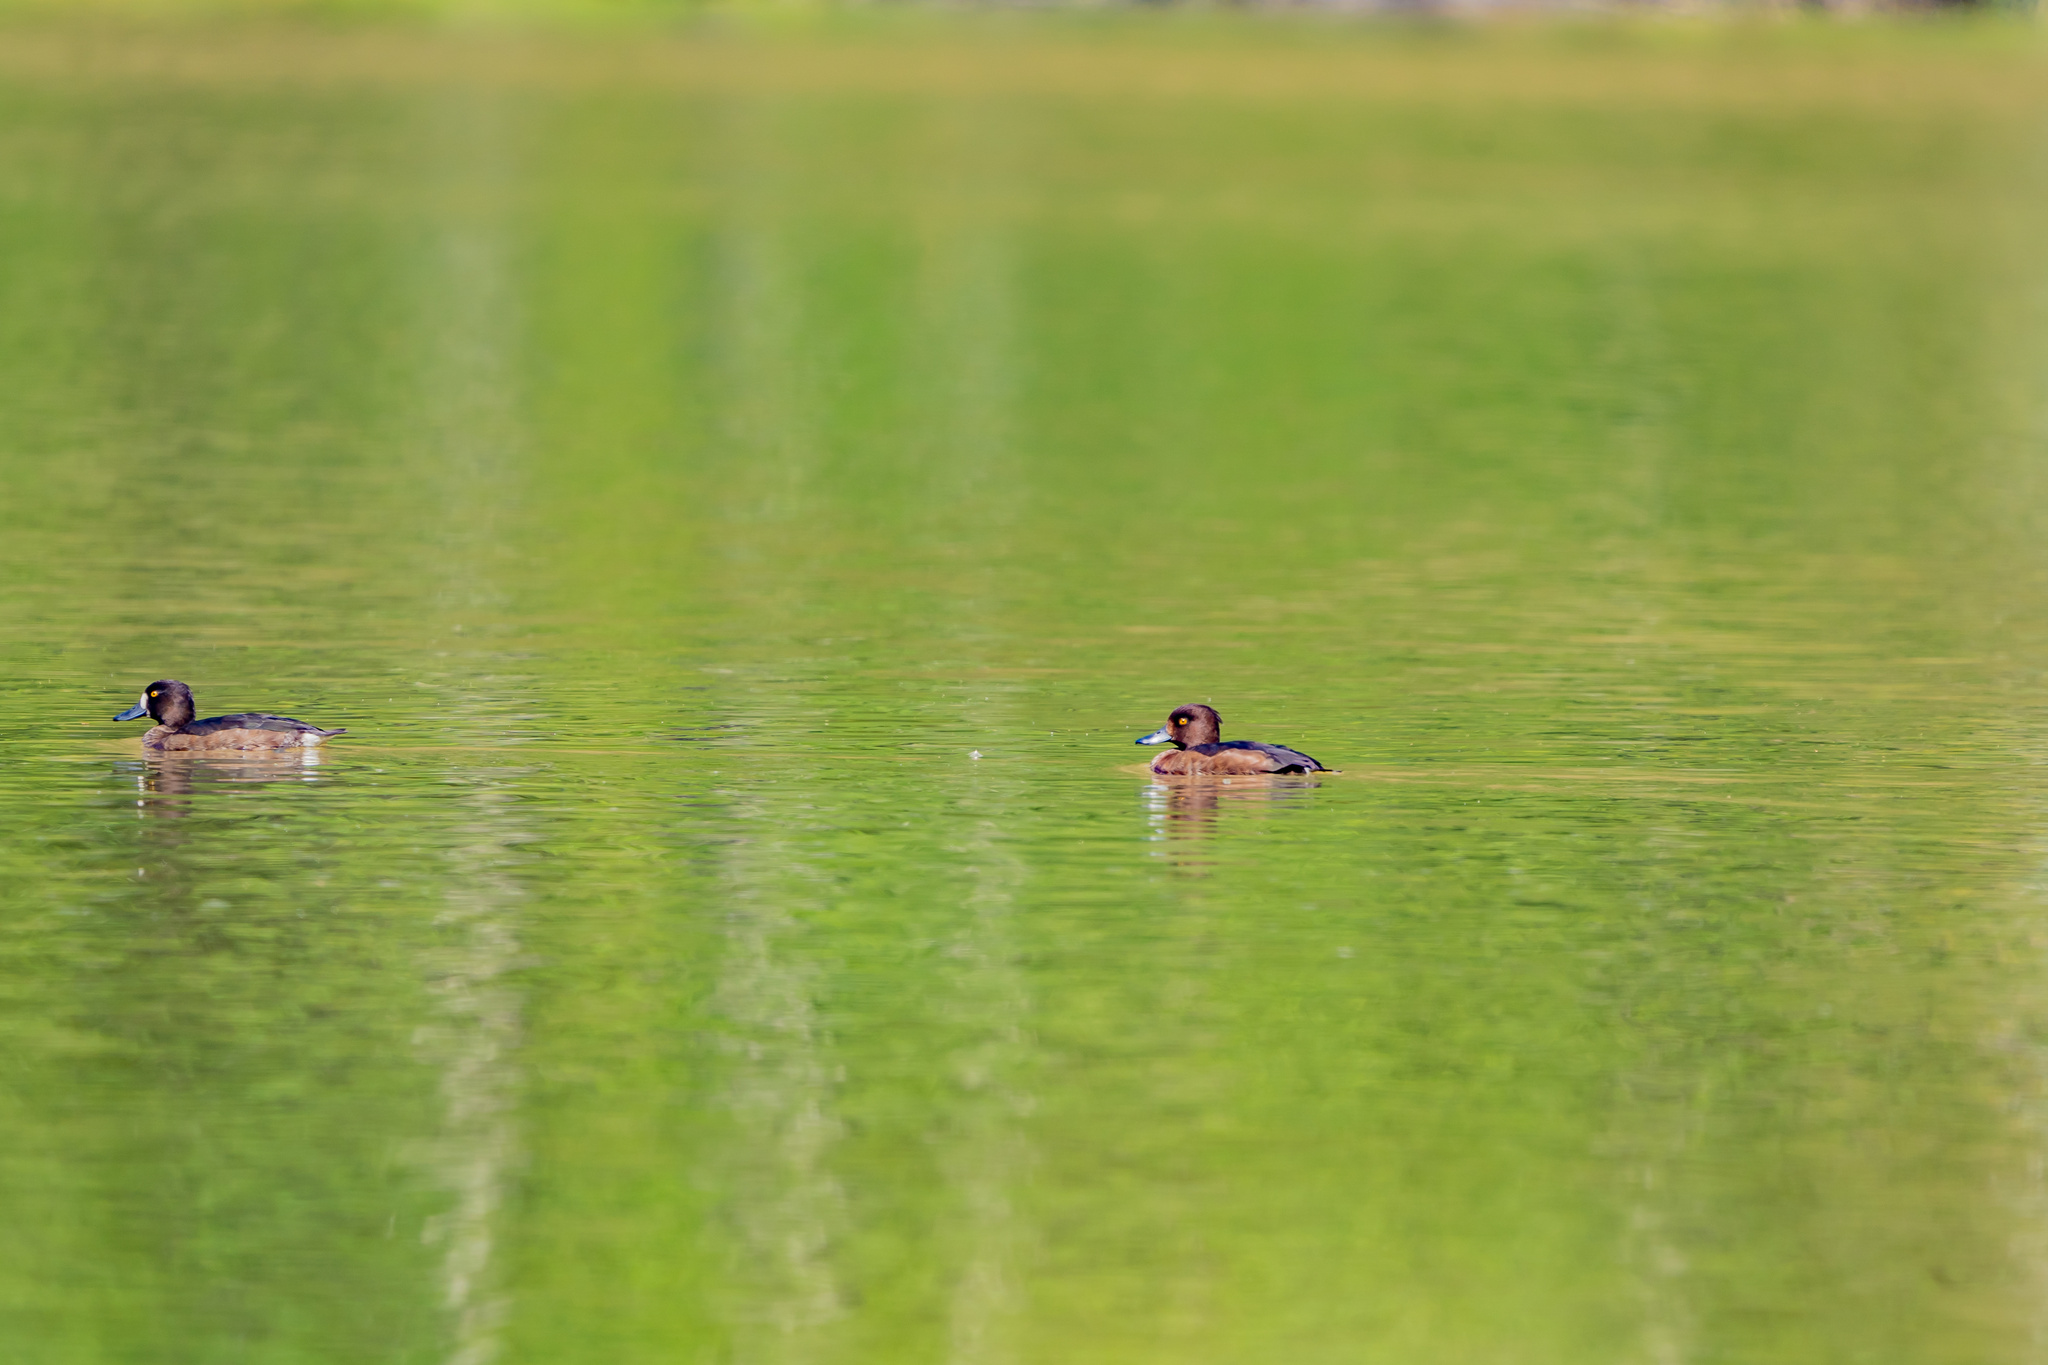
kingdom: Animalia
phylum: Chordata
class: Aves
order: Anseriformes
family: Anatidae
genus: Aythya
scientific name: Aythya fuligula
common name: Tufted duck
